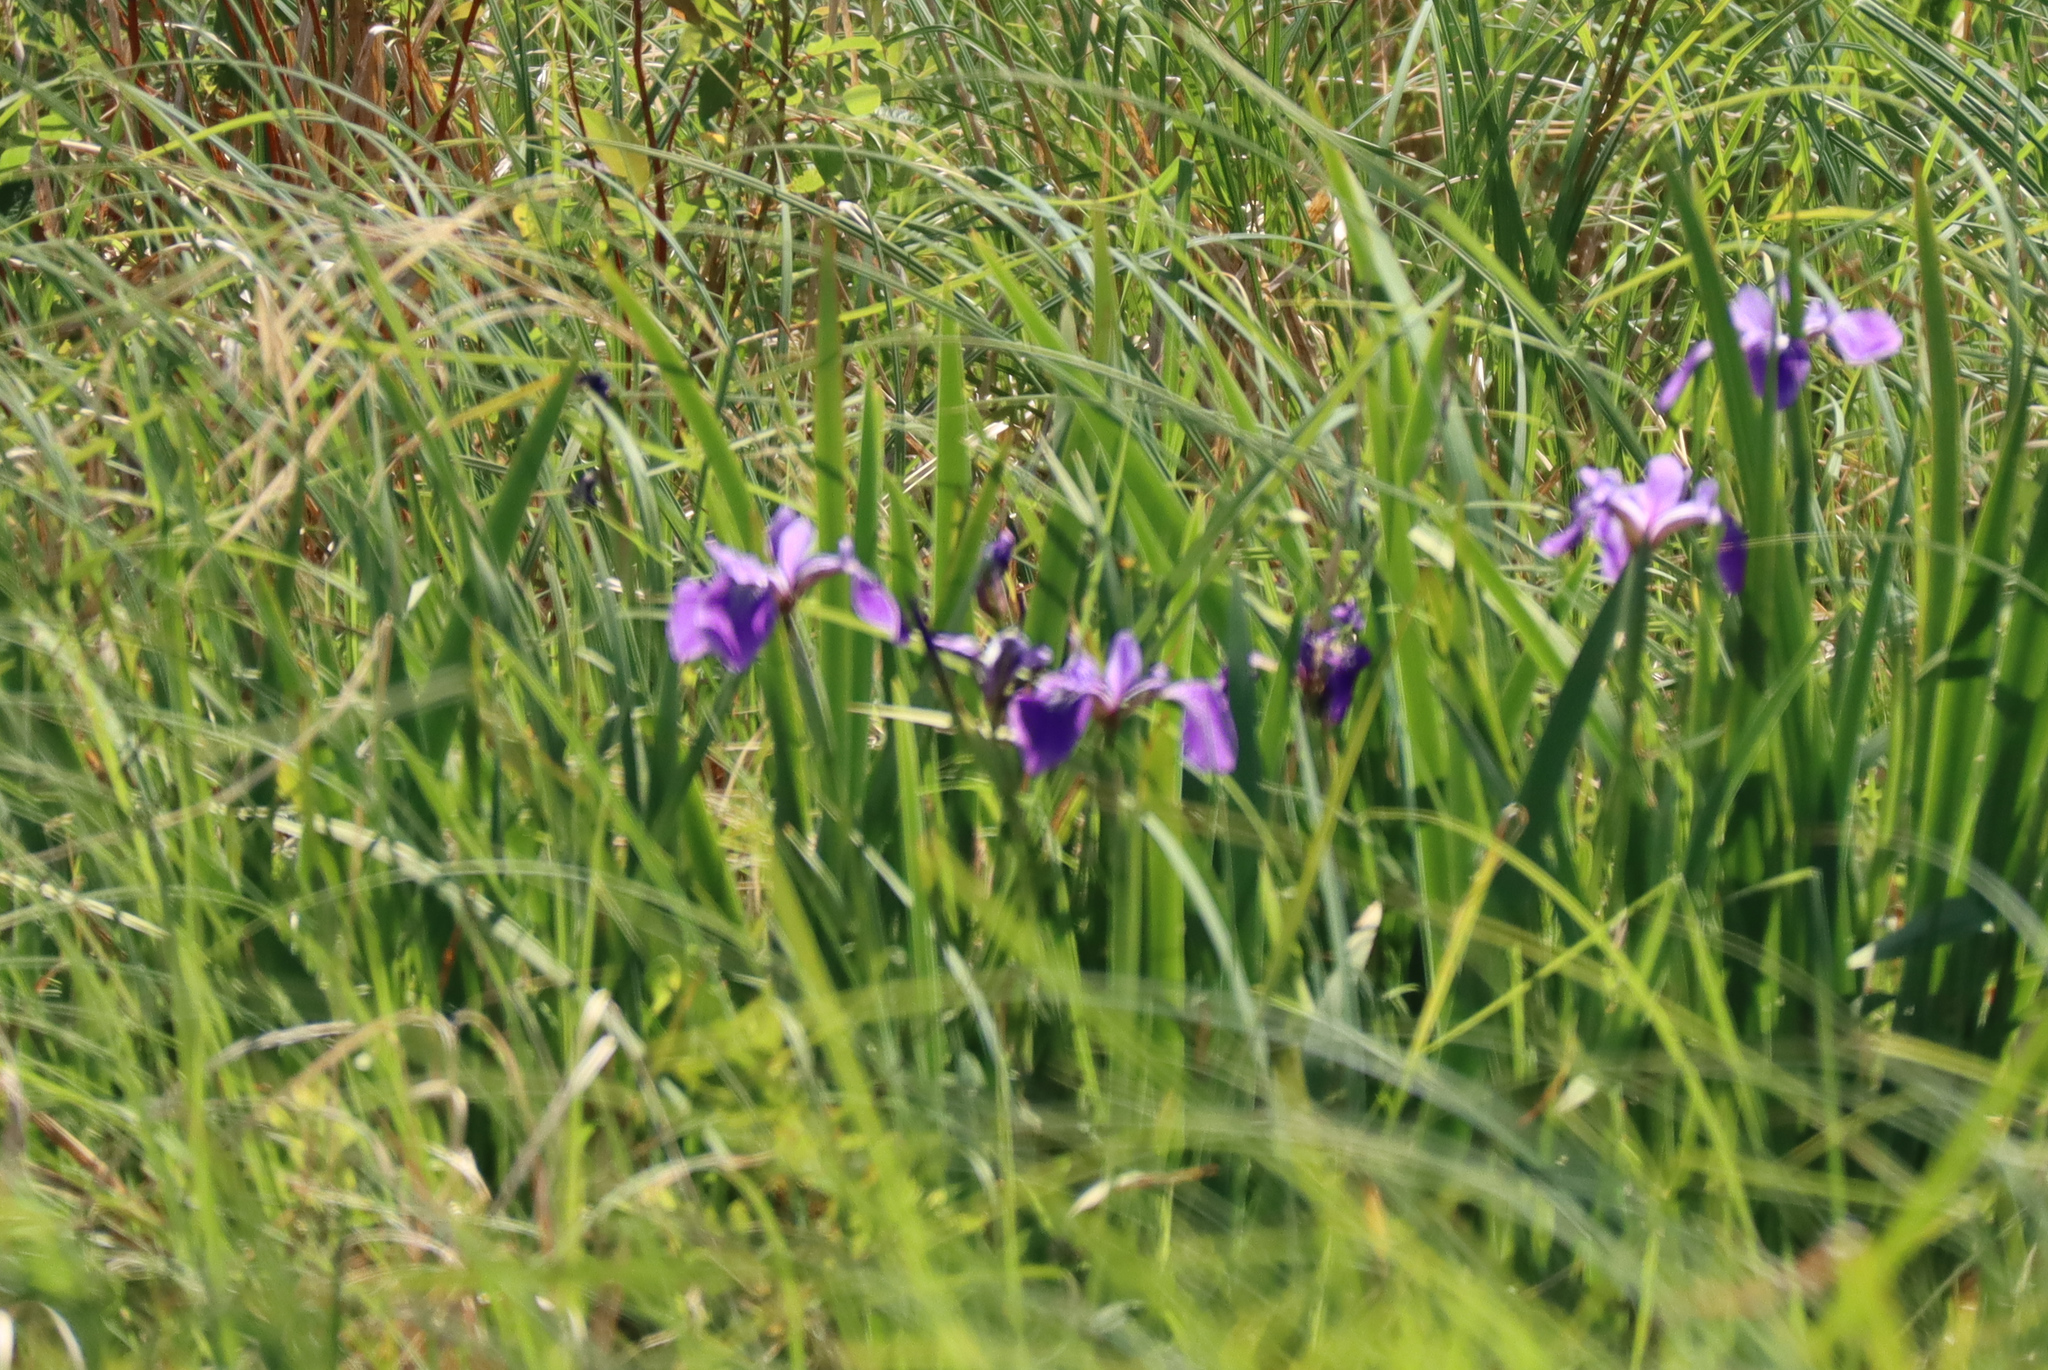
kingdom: Plantae
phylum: Tracheophyta
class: Liliopsida
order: Asparagales
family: Iridaceae
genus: Iris
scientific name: Iris versicolor
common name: Purple iris
